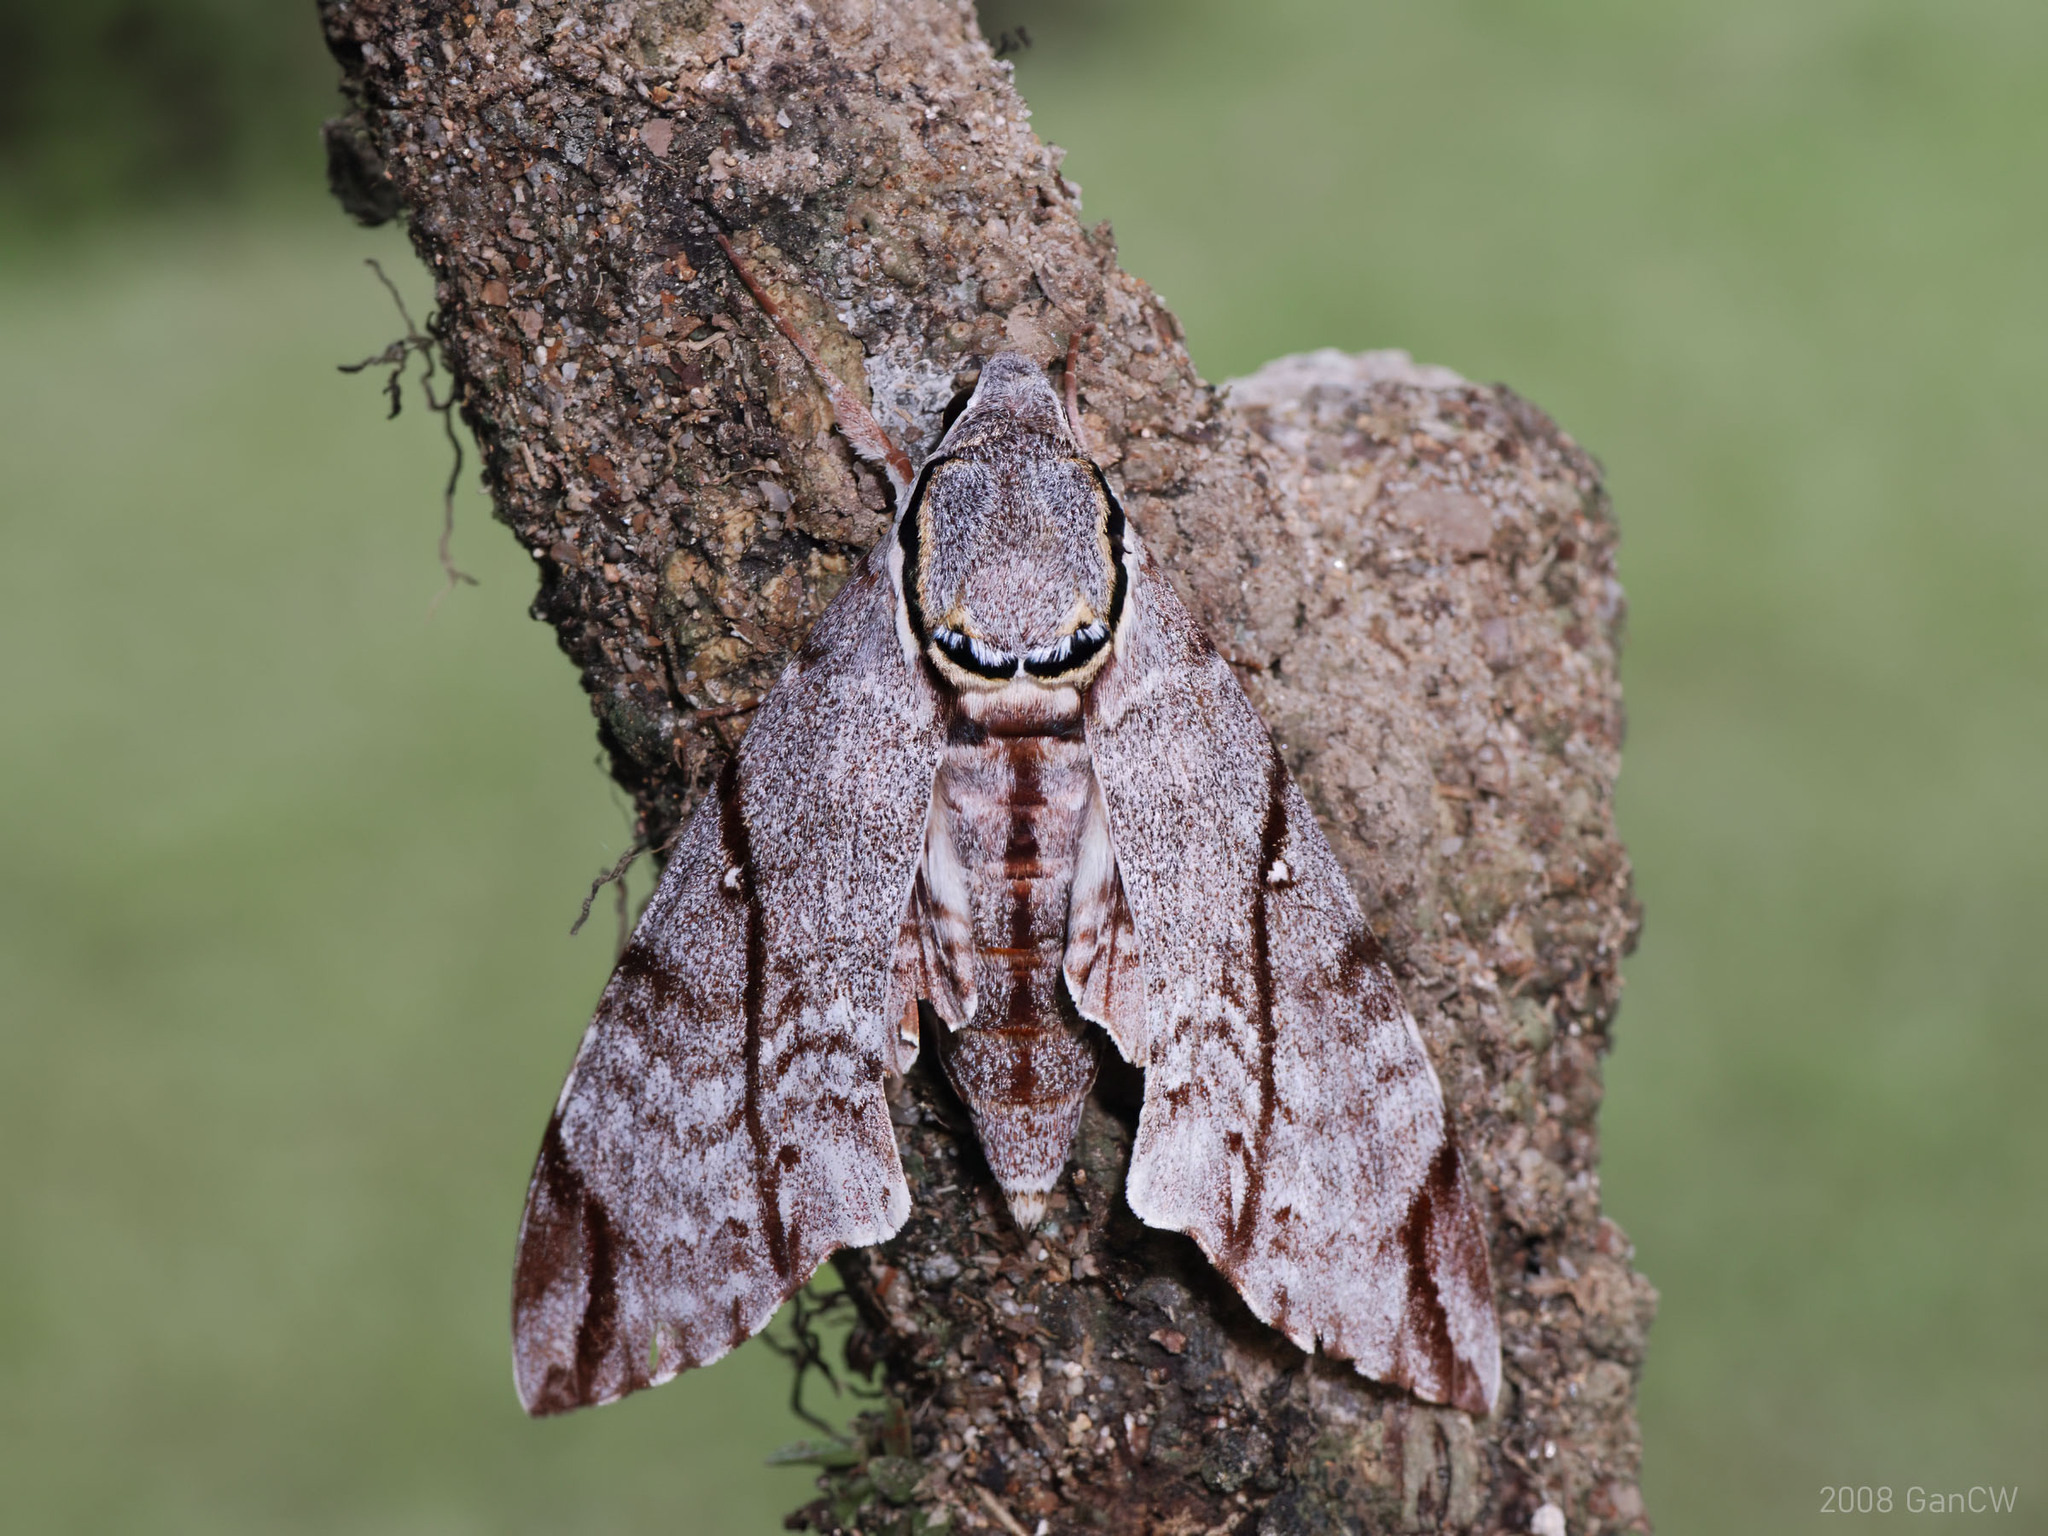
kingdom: Animalia
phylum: Arthropoda
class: Insecta
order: Lepidoptera
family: Sphingidae
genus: Notonagemia
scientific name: Notonagemia analis
